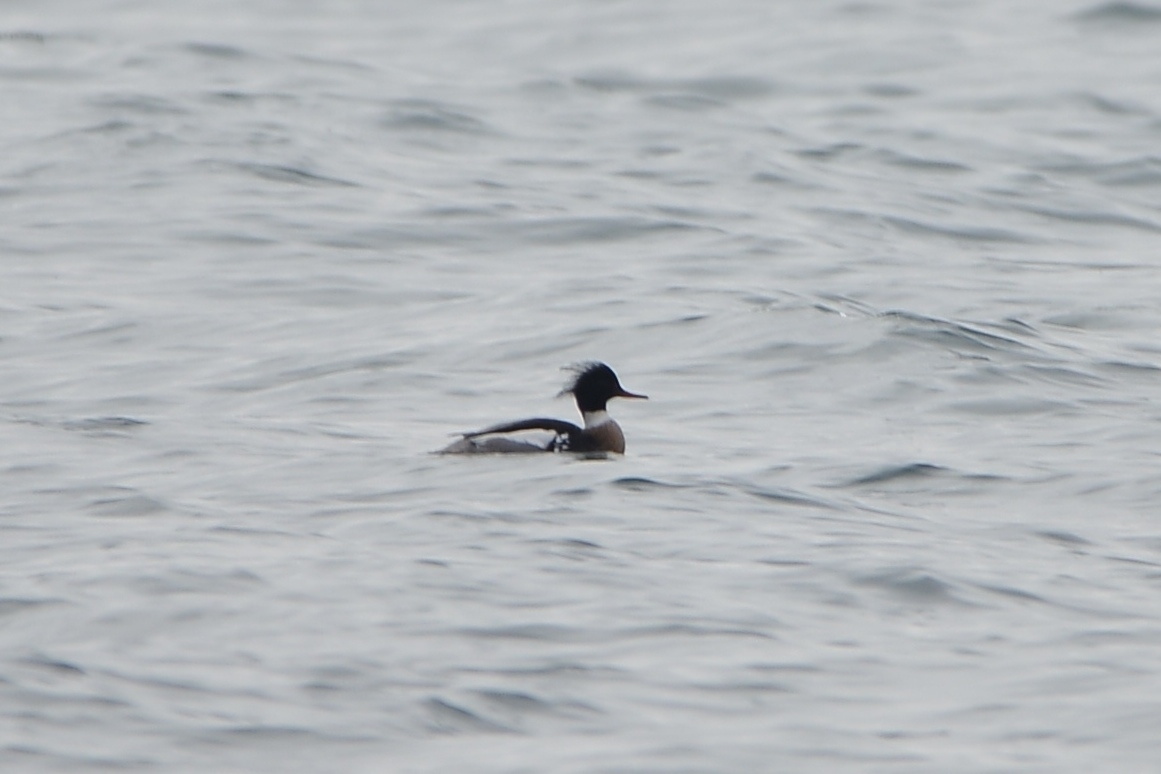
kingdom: Animalia
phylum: Chordata
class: Aves
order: Anseriformes
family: Anatidae
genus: Mergus
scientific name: Mergus serrator
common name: Red-breasted merganser
